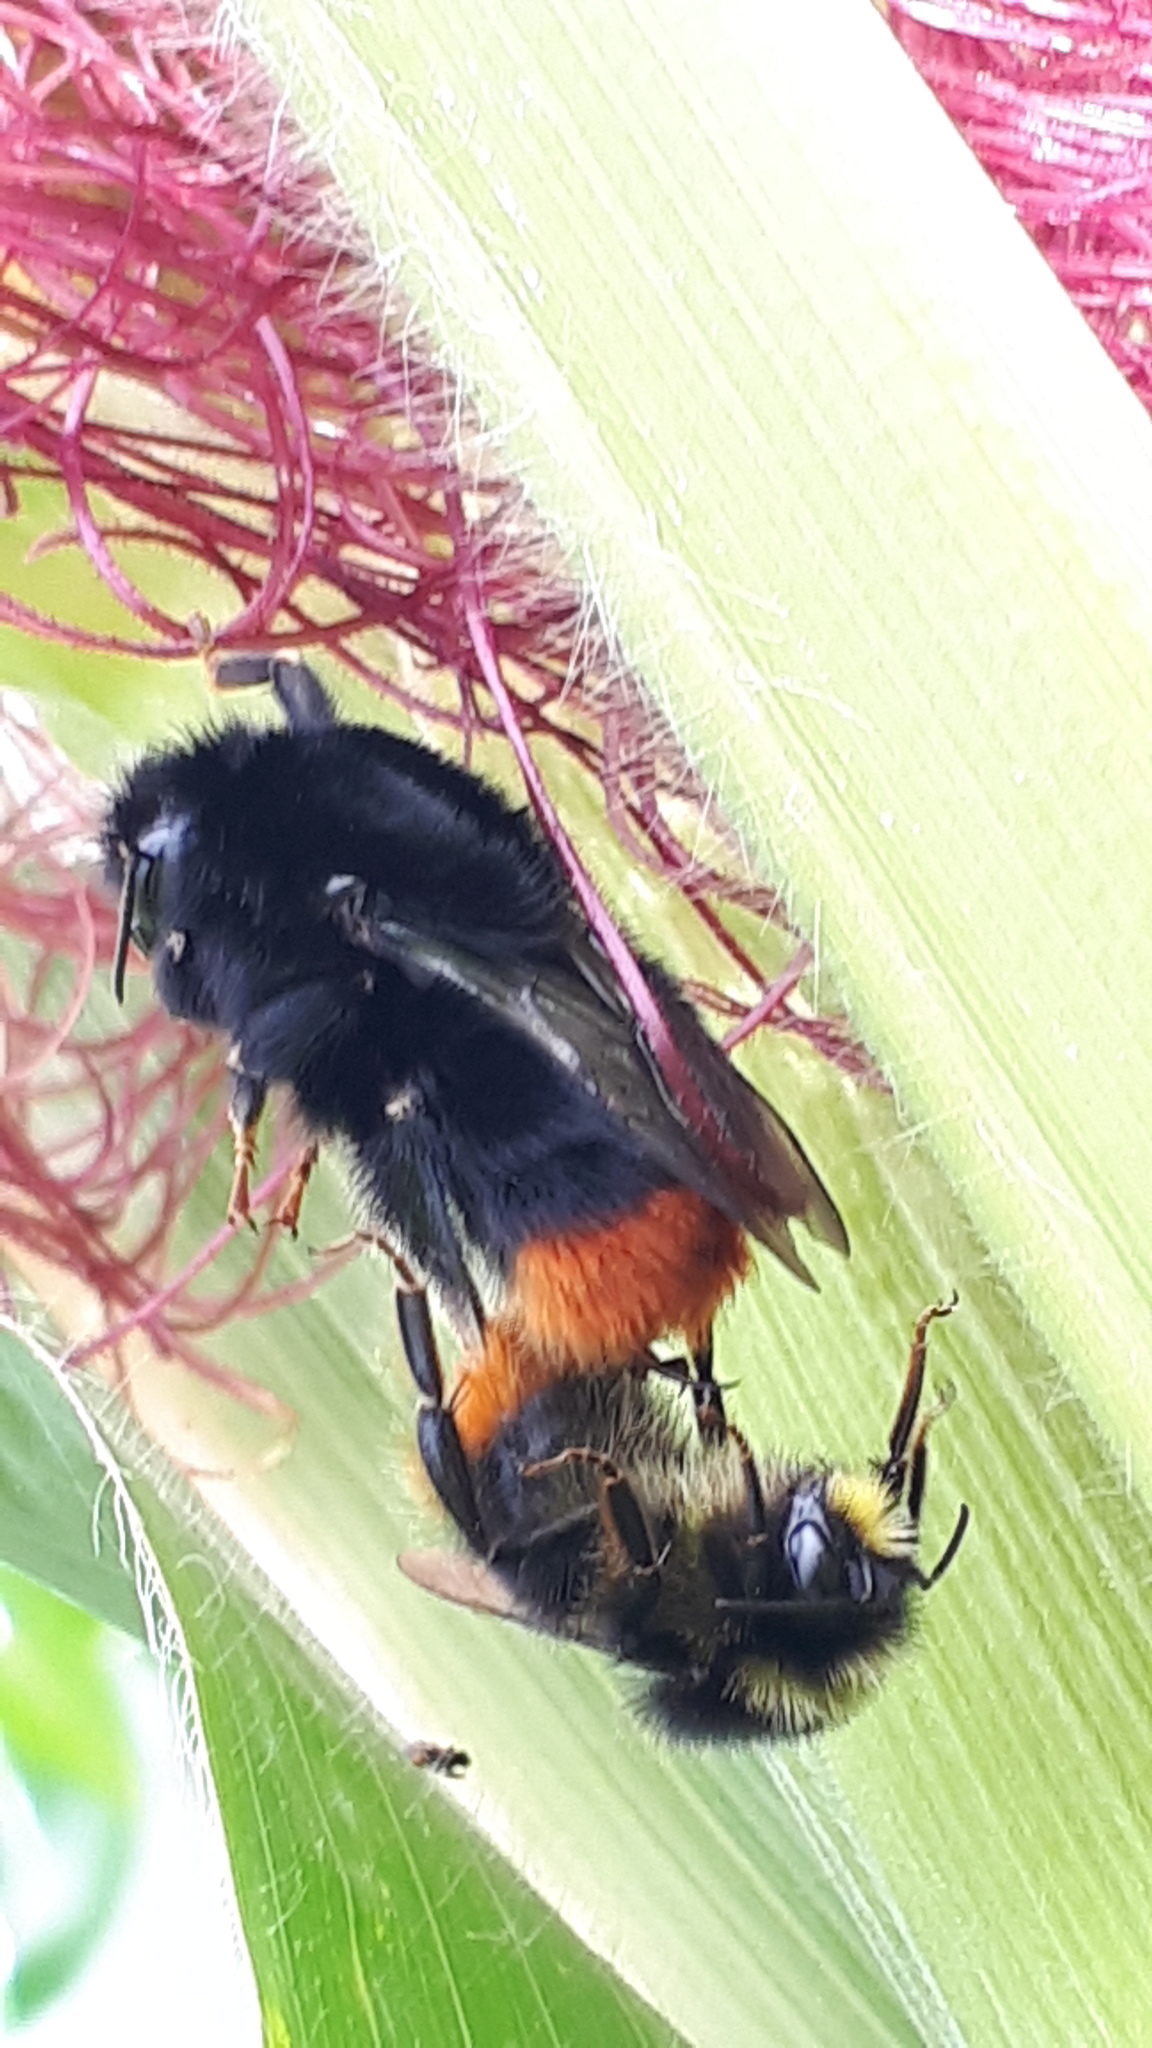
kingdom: Animalia
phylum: Arthropoda
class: Insecta
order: Hymenoptera
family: Apidae
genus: Bombus
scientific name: Bombus lapidarius
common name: Large red-tailed humble-bee
